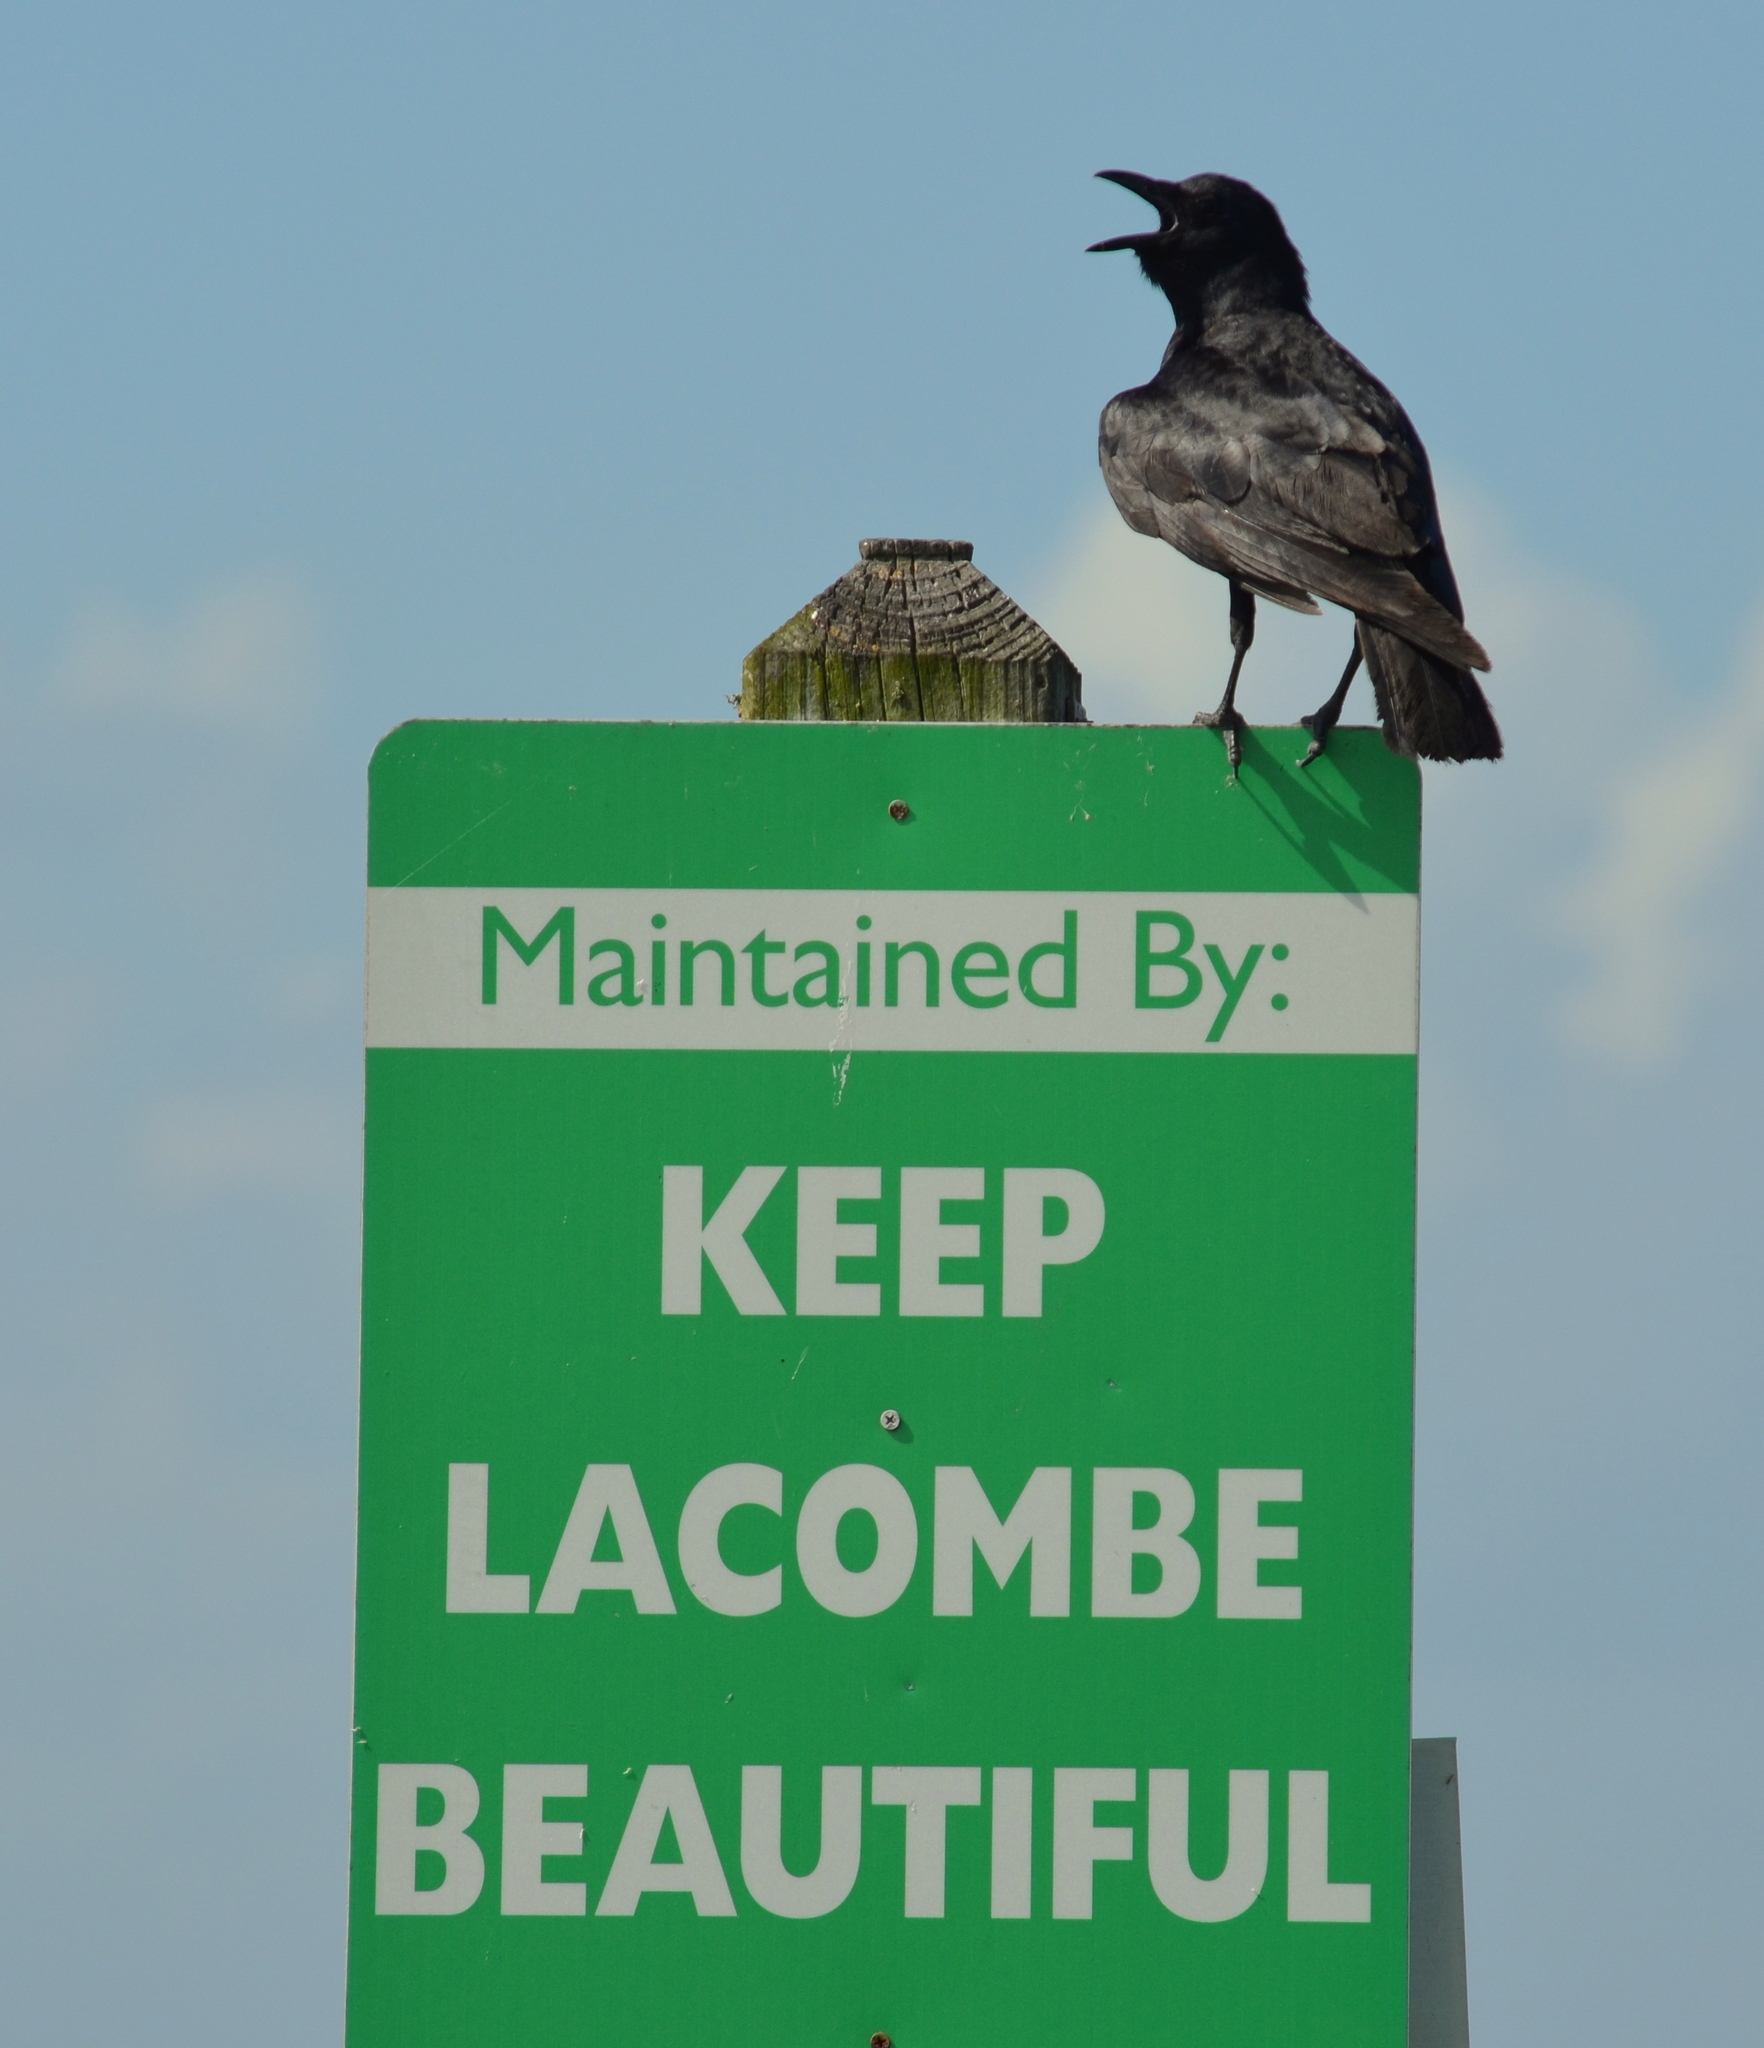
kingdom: Animalia
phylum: Chordata
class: Aves
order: Passeriformes
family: Corvidae
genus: Corvus
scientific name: Corvus ossifragus
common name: Fish crow
